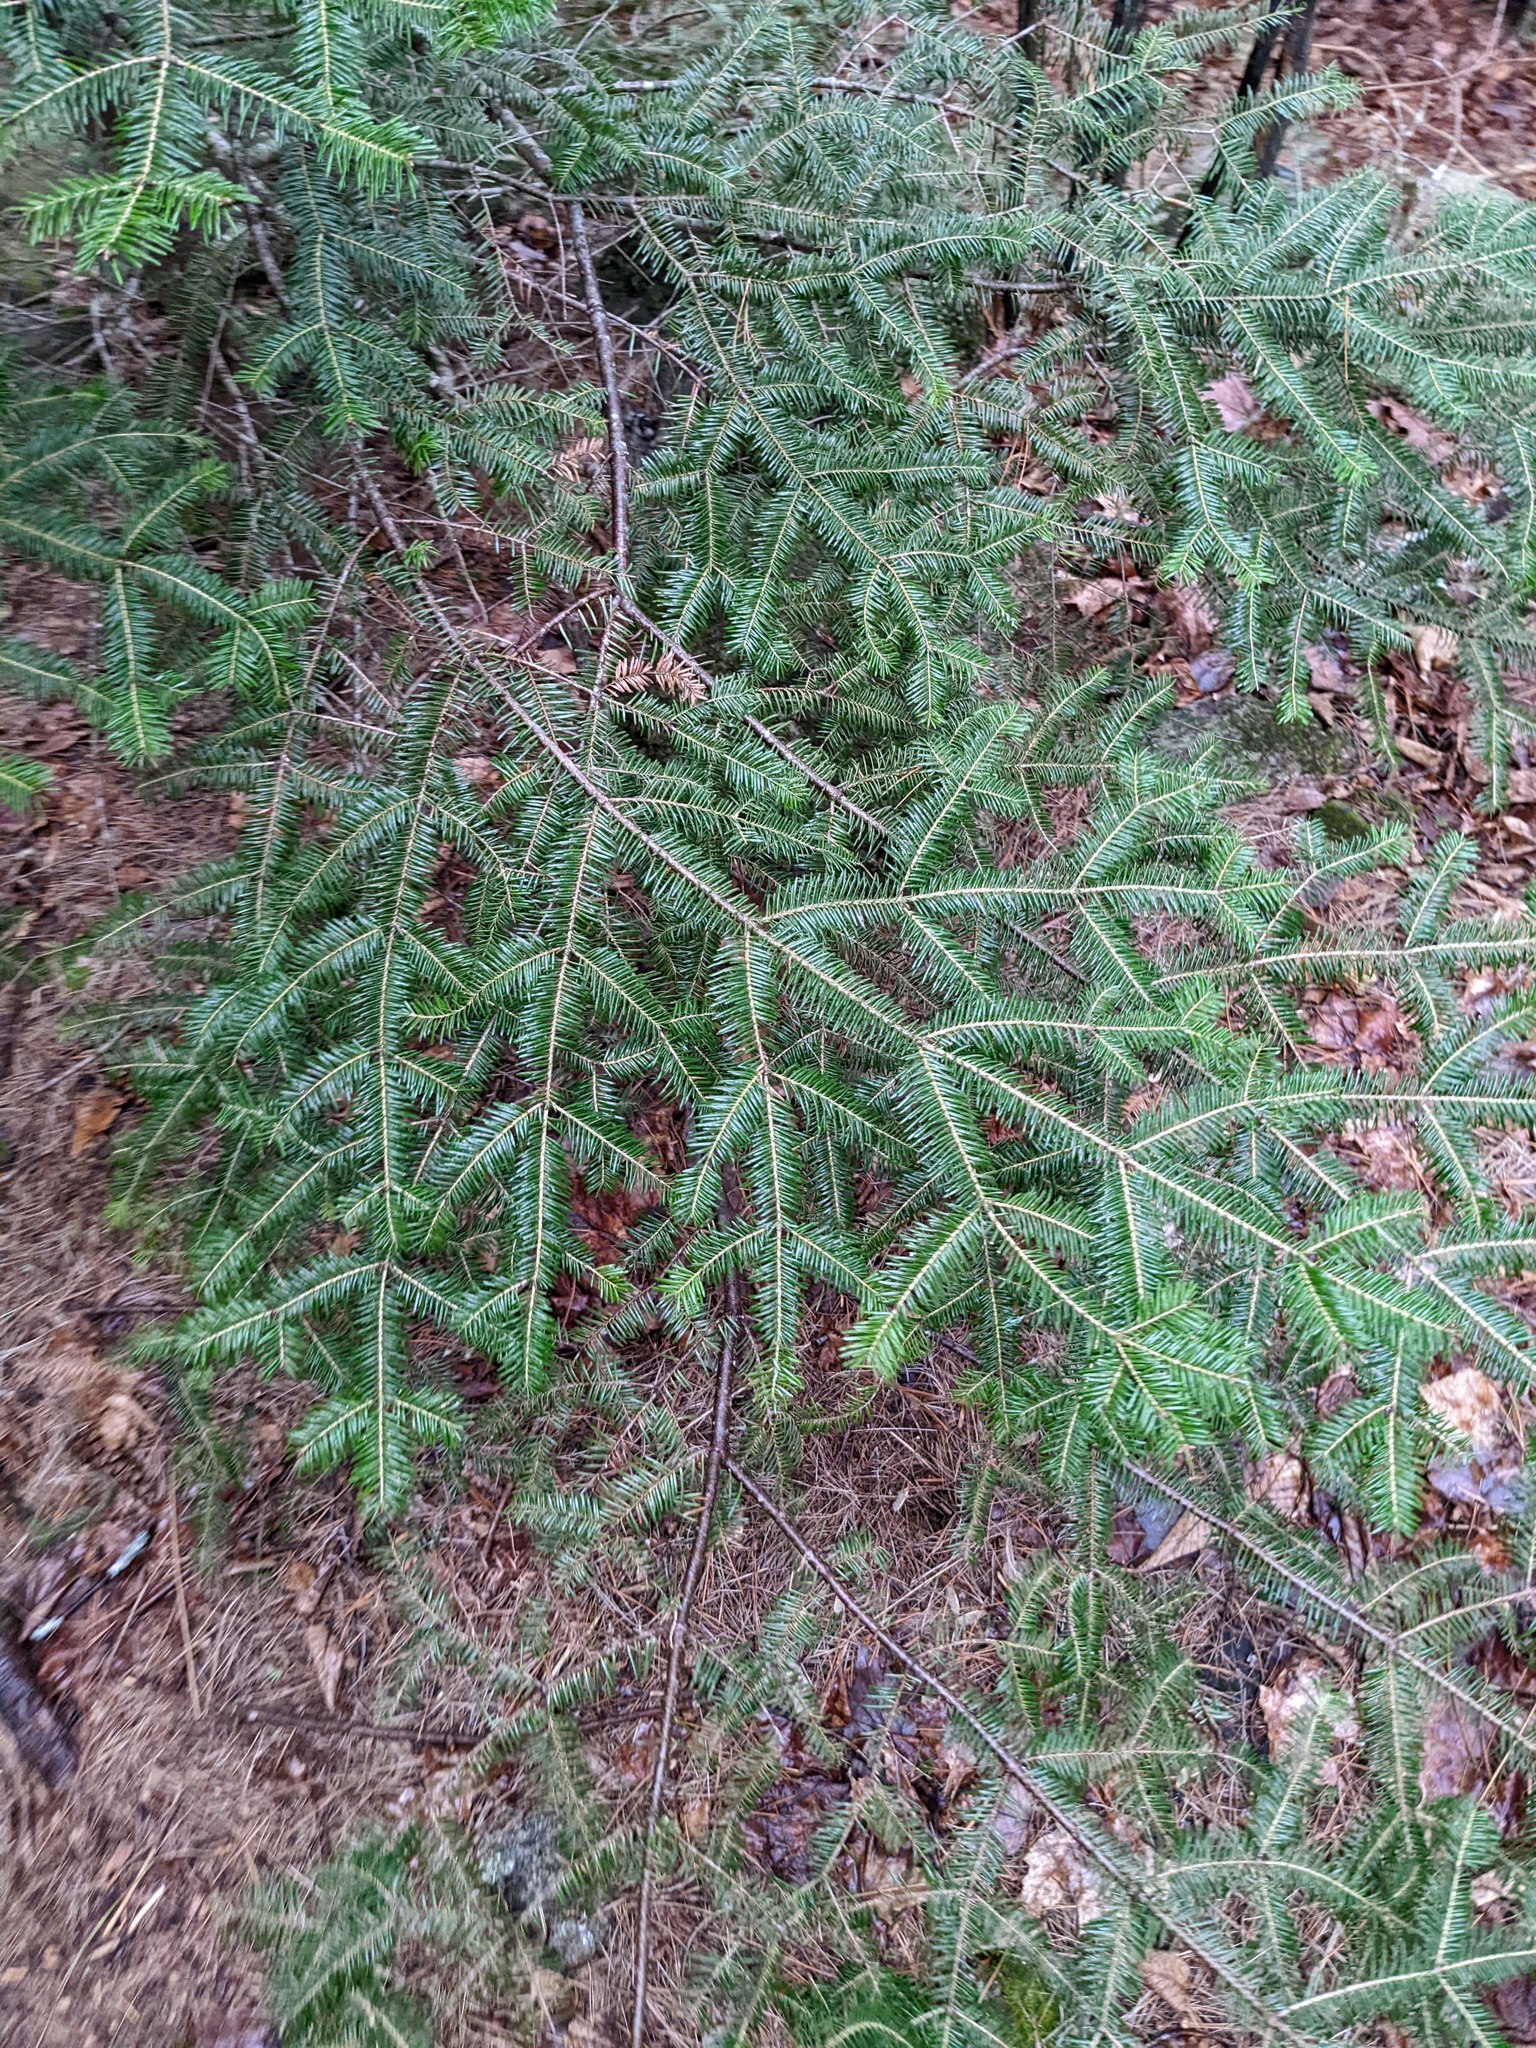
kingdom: Plantae
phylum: Tracheophyta
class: Pinopsida
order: Pinales
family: Pinaceae
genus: Abies
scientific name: Abies balsamea
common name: Balsam fir
